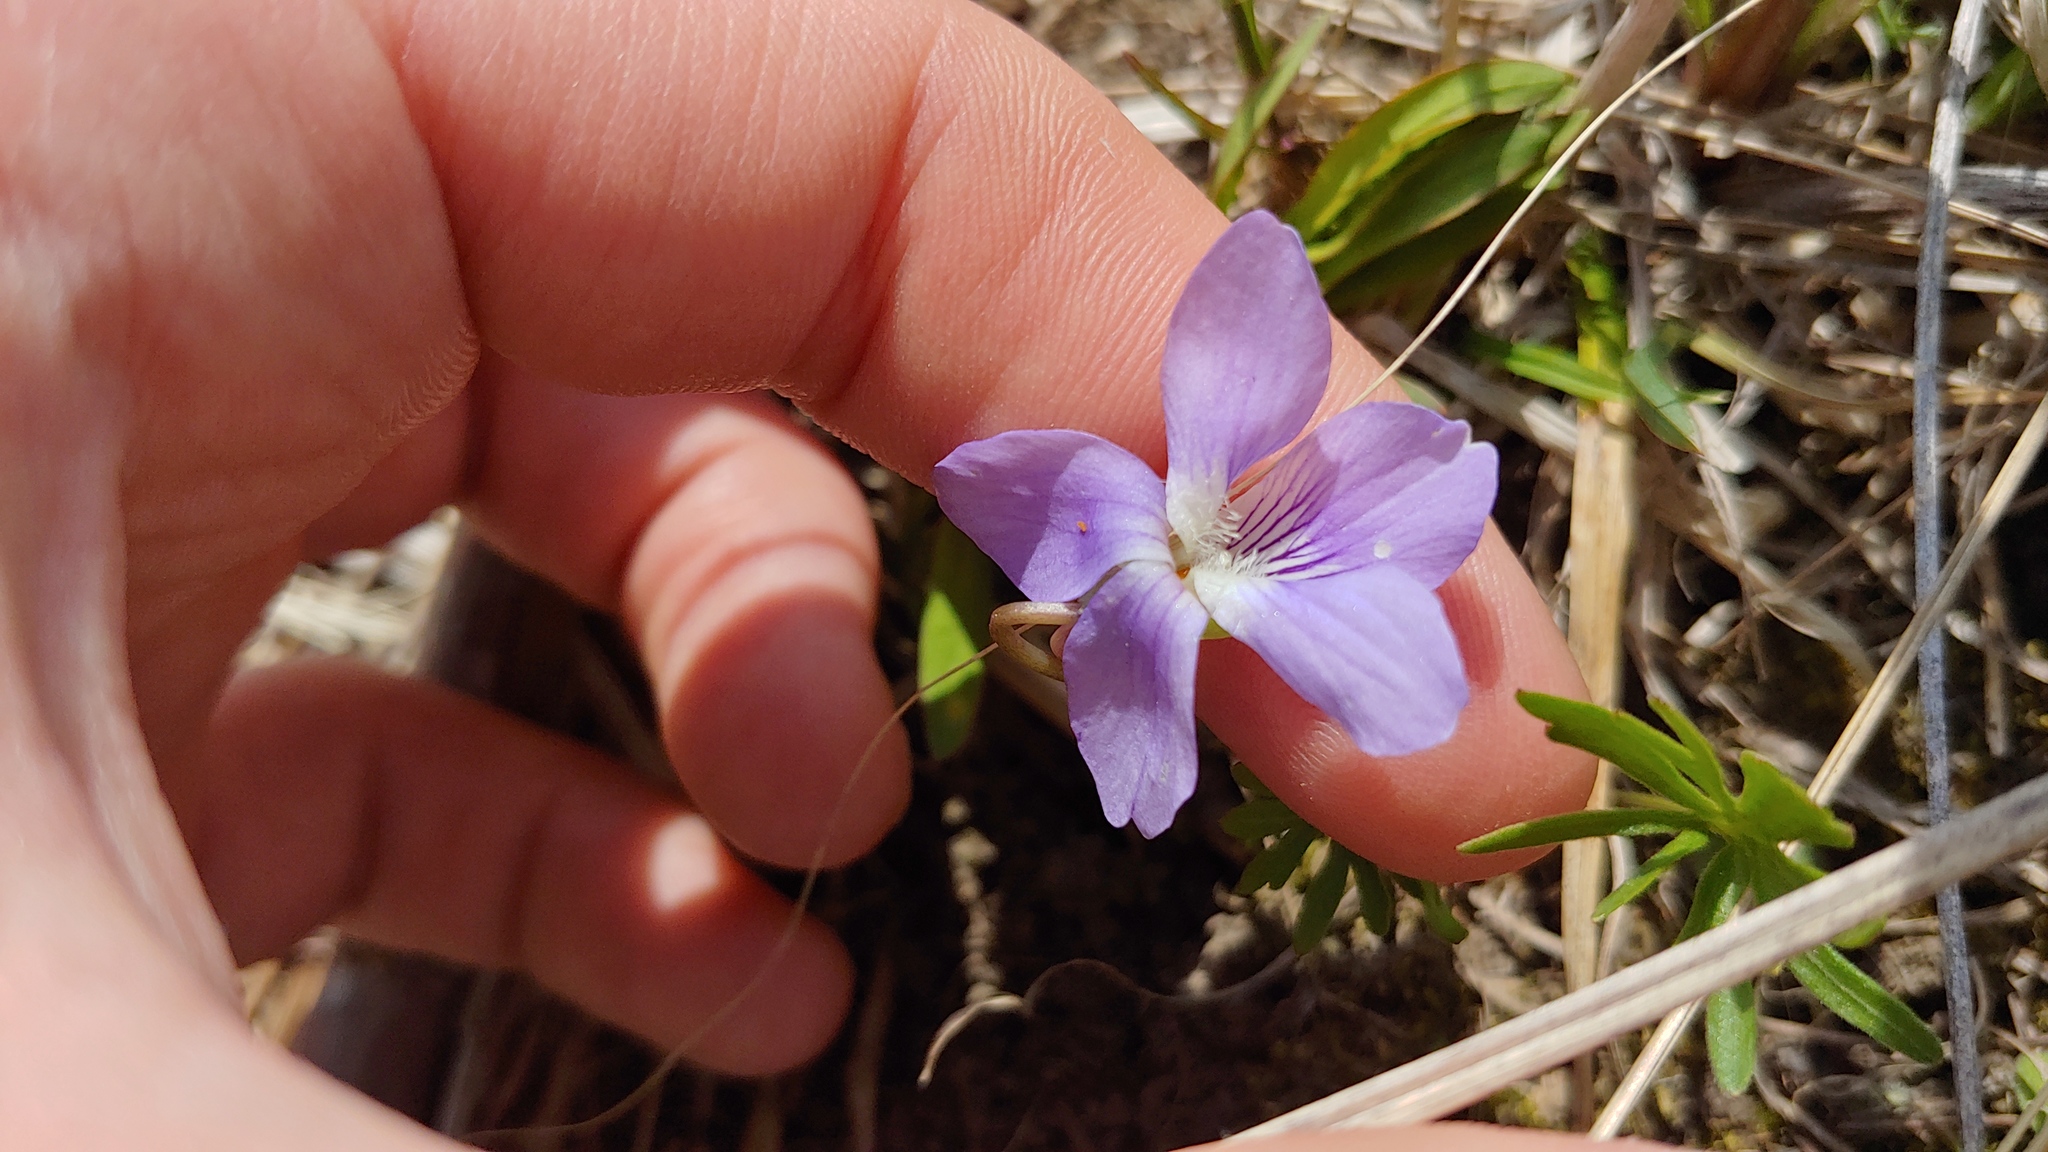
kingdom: Plantae
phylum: Tracheophyta
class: Magnoliopsida
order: Malpighiales
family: Violaceae
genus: Viola
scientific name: Viola pedatifida
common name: Prairie violet
